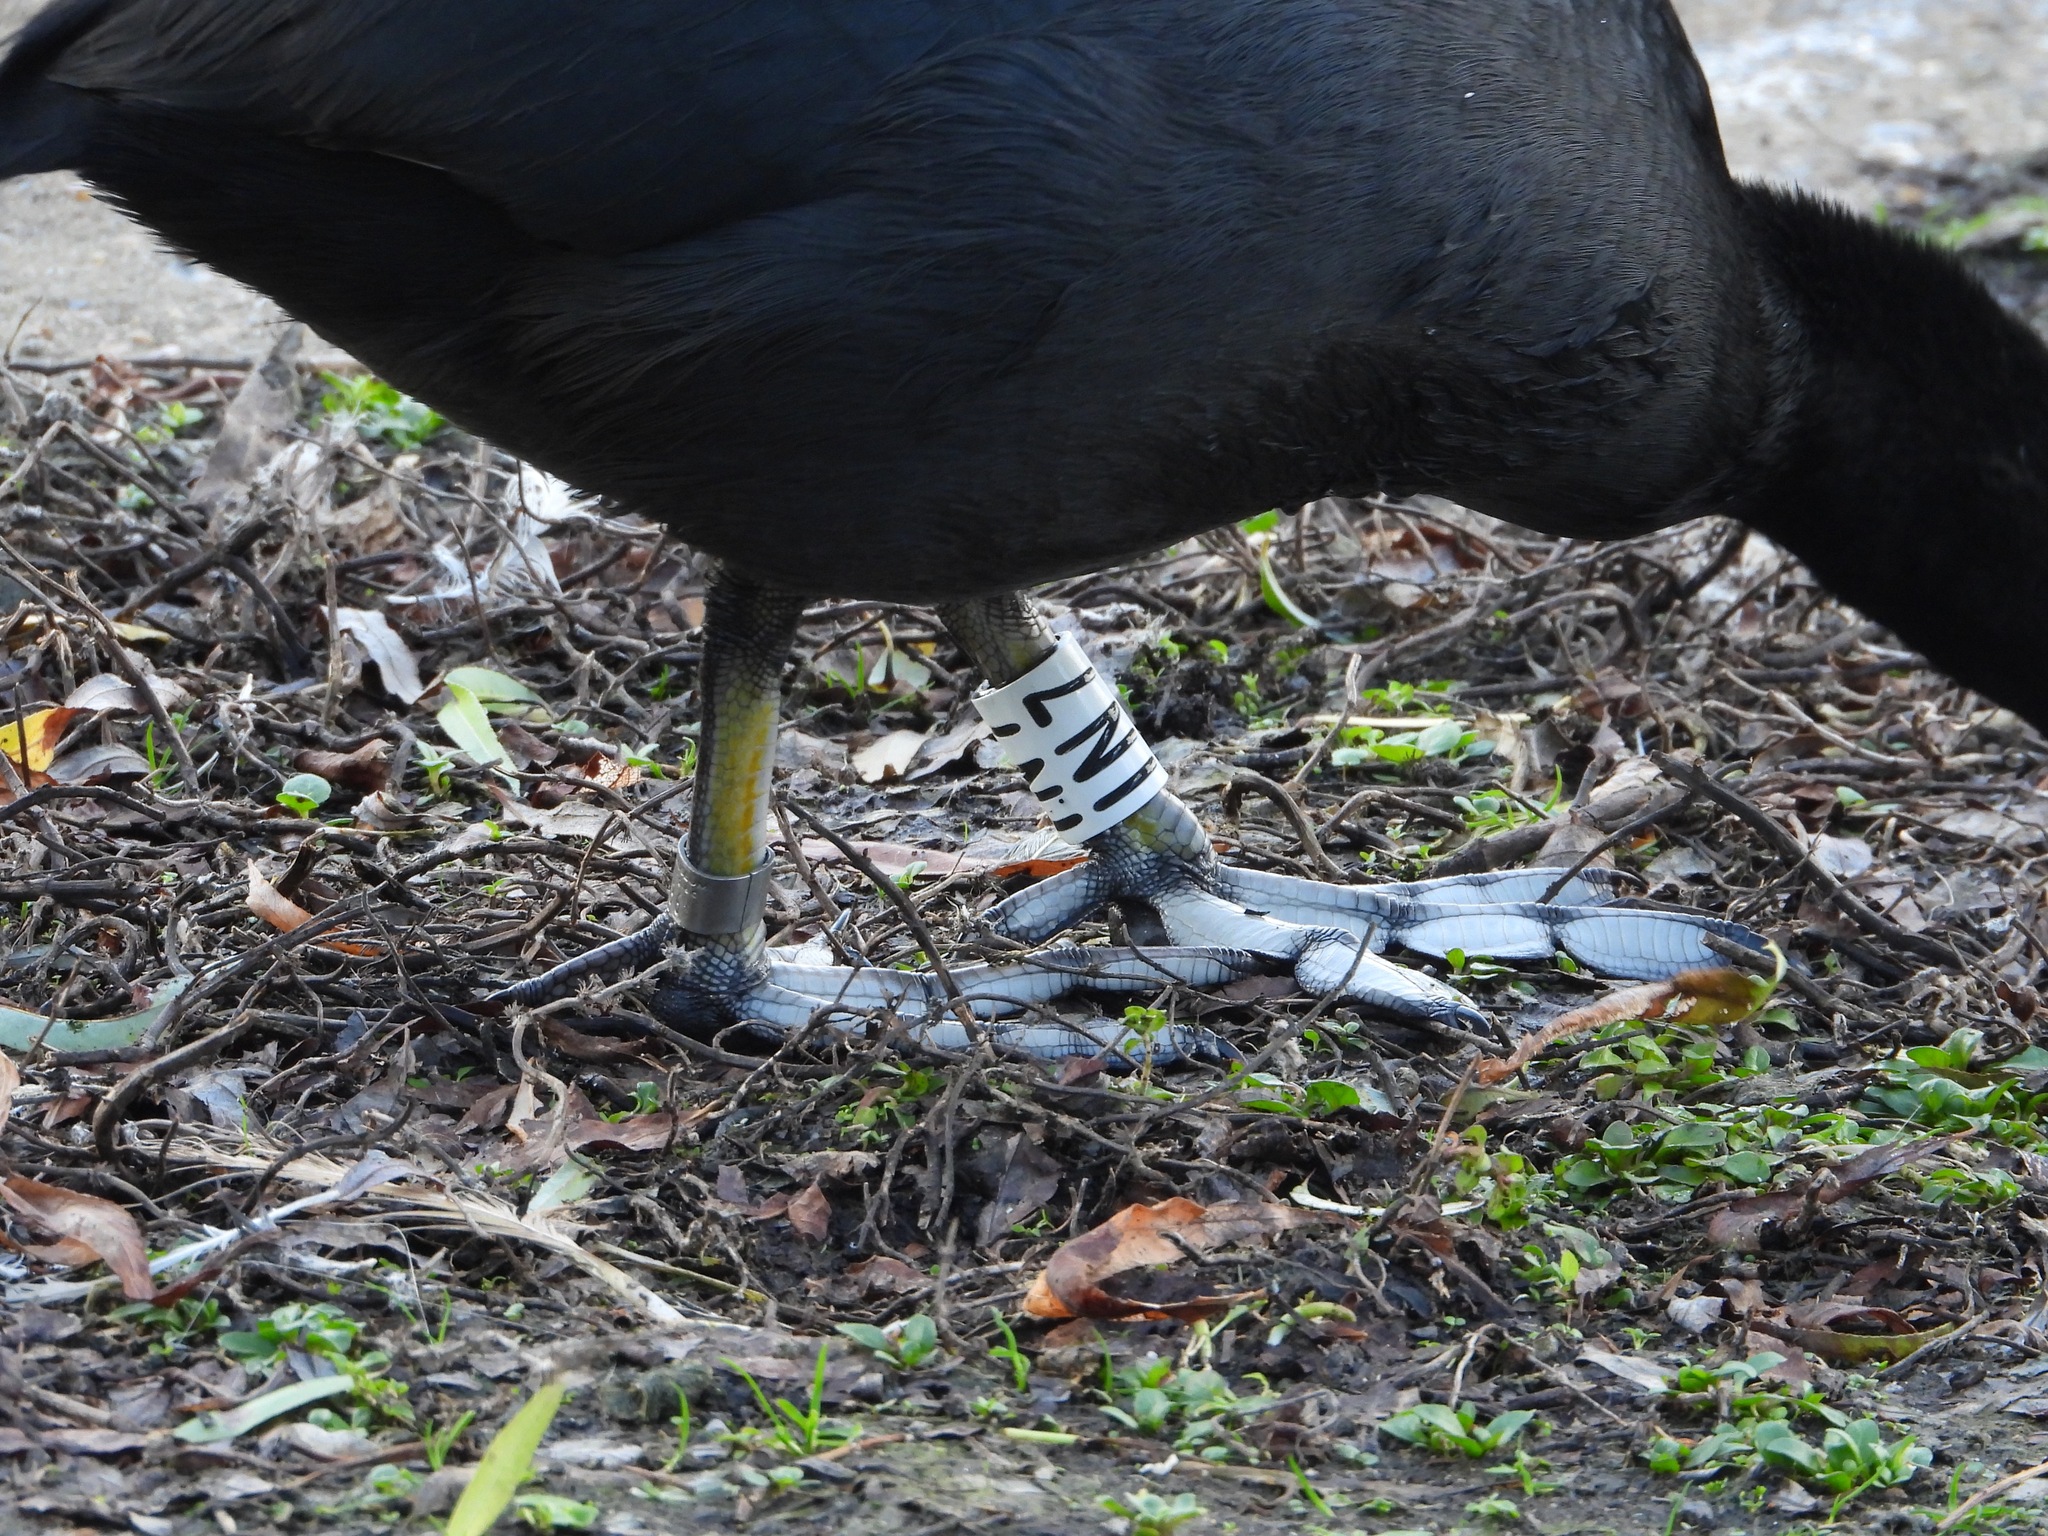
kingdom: Animalia
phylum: Chordata
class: Aves
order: Gruiformes
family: Rallidae
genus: Fulica
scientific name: Fulica atra
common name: Eurasian coot
